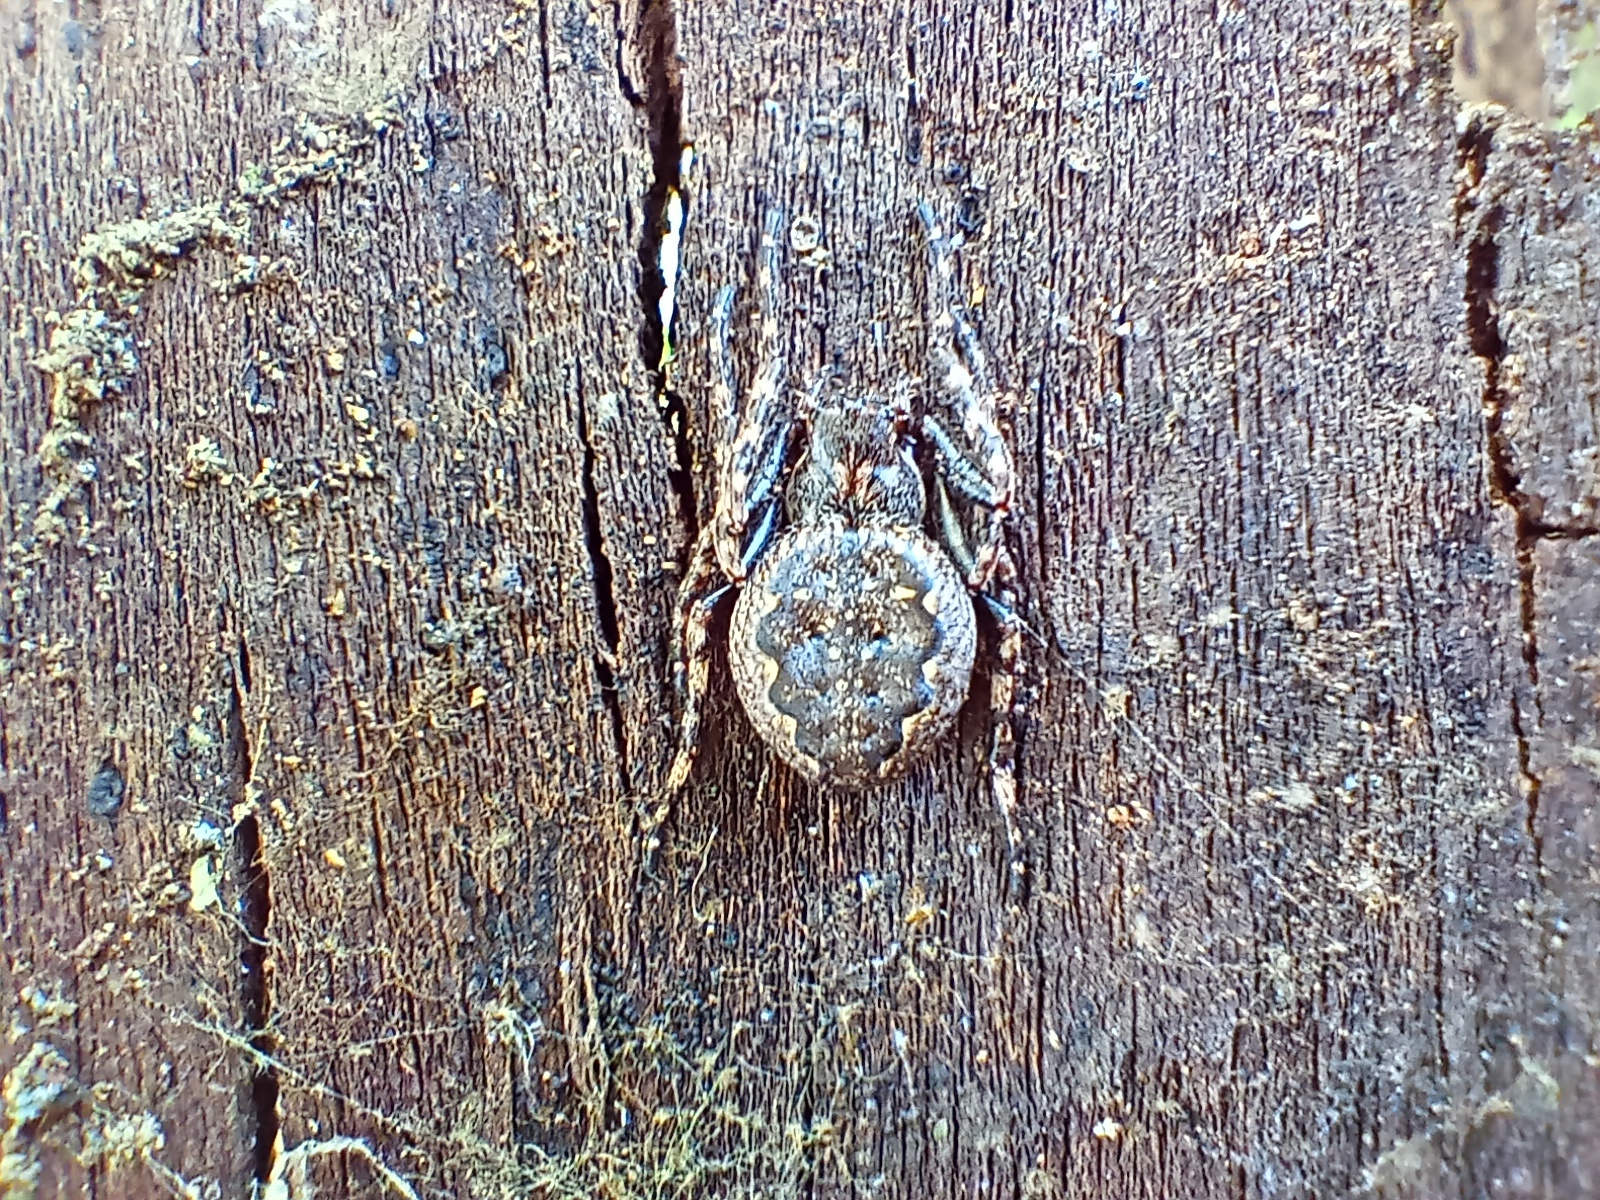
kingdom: Animalia
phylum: Arthropoda
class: Arachnida
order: Araneae
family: Araneidae
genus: Nuctenea
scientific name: Nuctenea umbratica
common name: Toad spider
